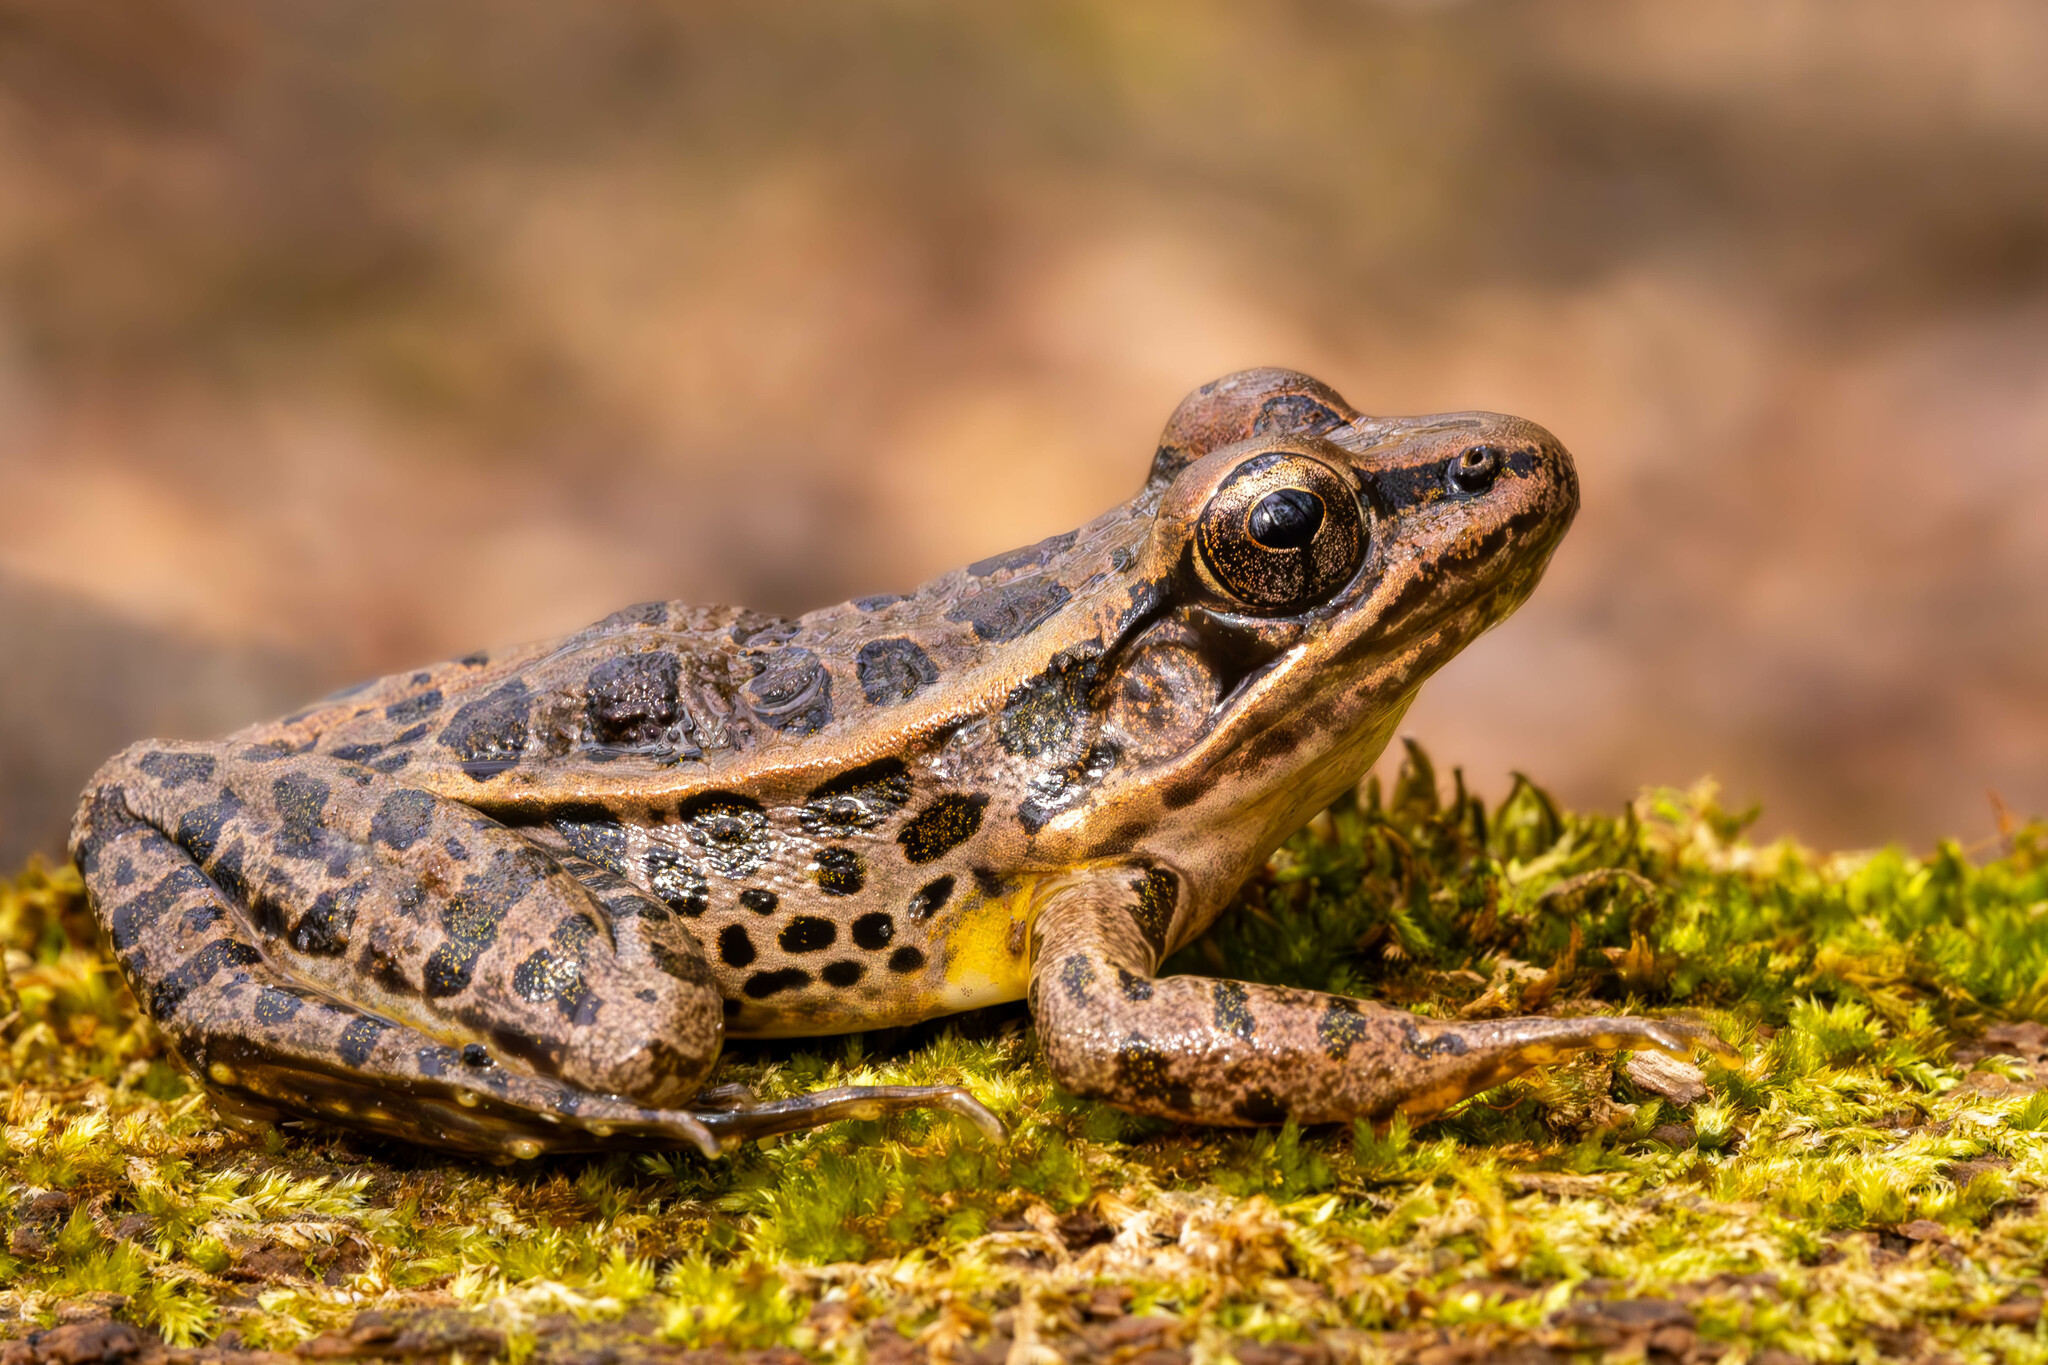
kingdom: Animalia
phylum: Chordata
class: Amphibia
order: Anura
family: Ranidae
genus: Lithobates
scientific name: Lithobates palustris
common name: Pickerel frog
